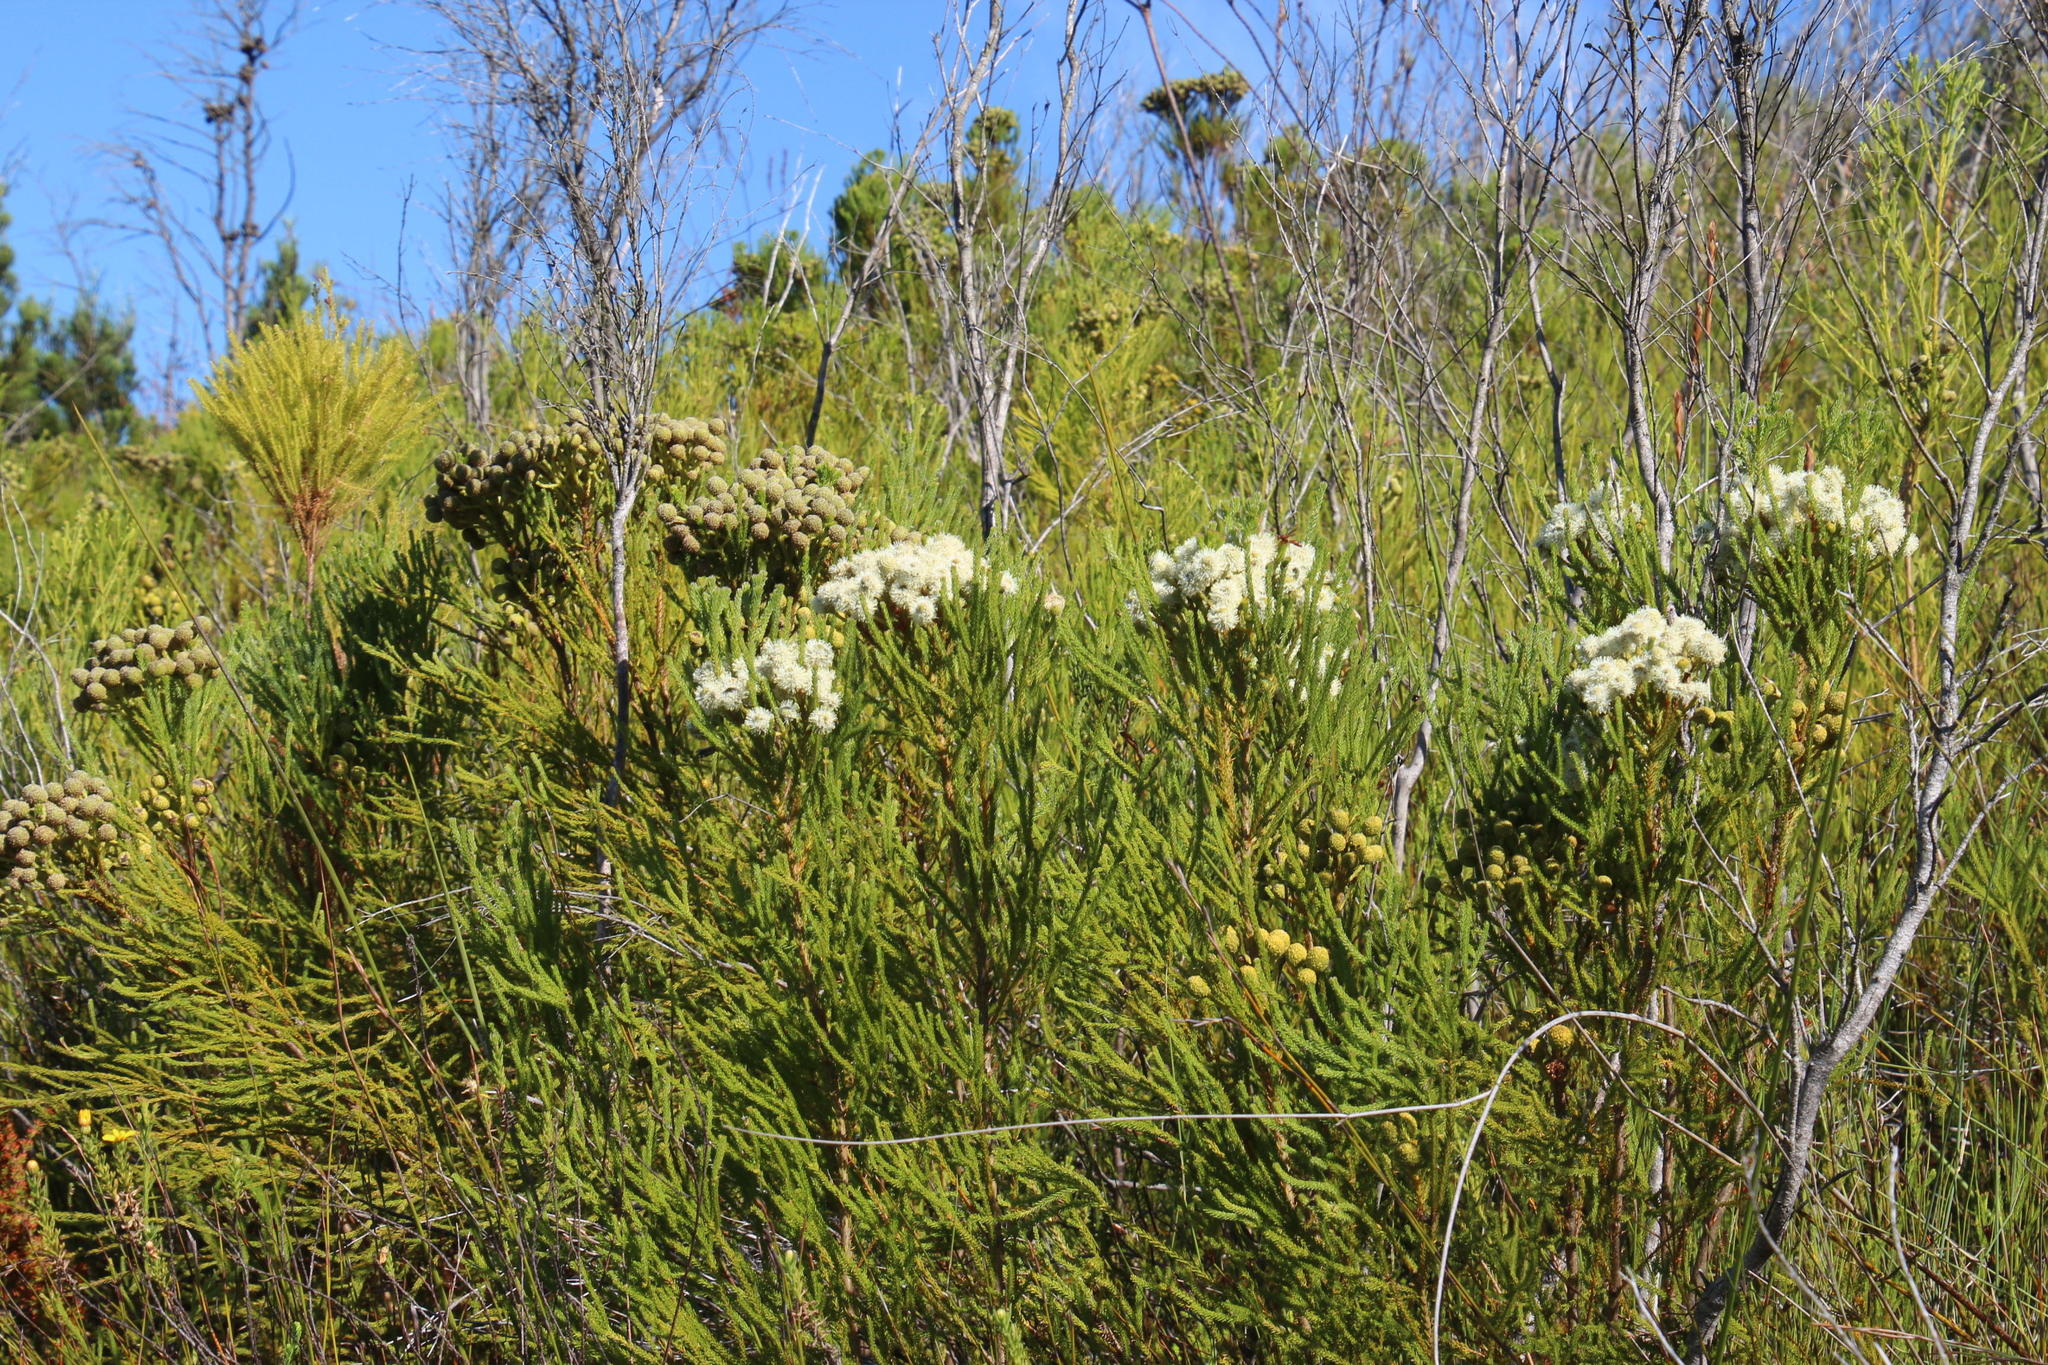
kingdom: Plantae
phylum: Tracheophyta
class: Magnoliopsida
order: Bruniales
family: Bruniaceae
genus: Brunia
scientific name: Brunia noduliflora
